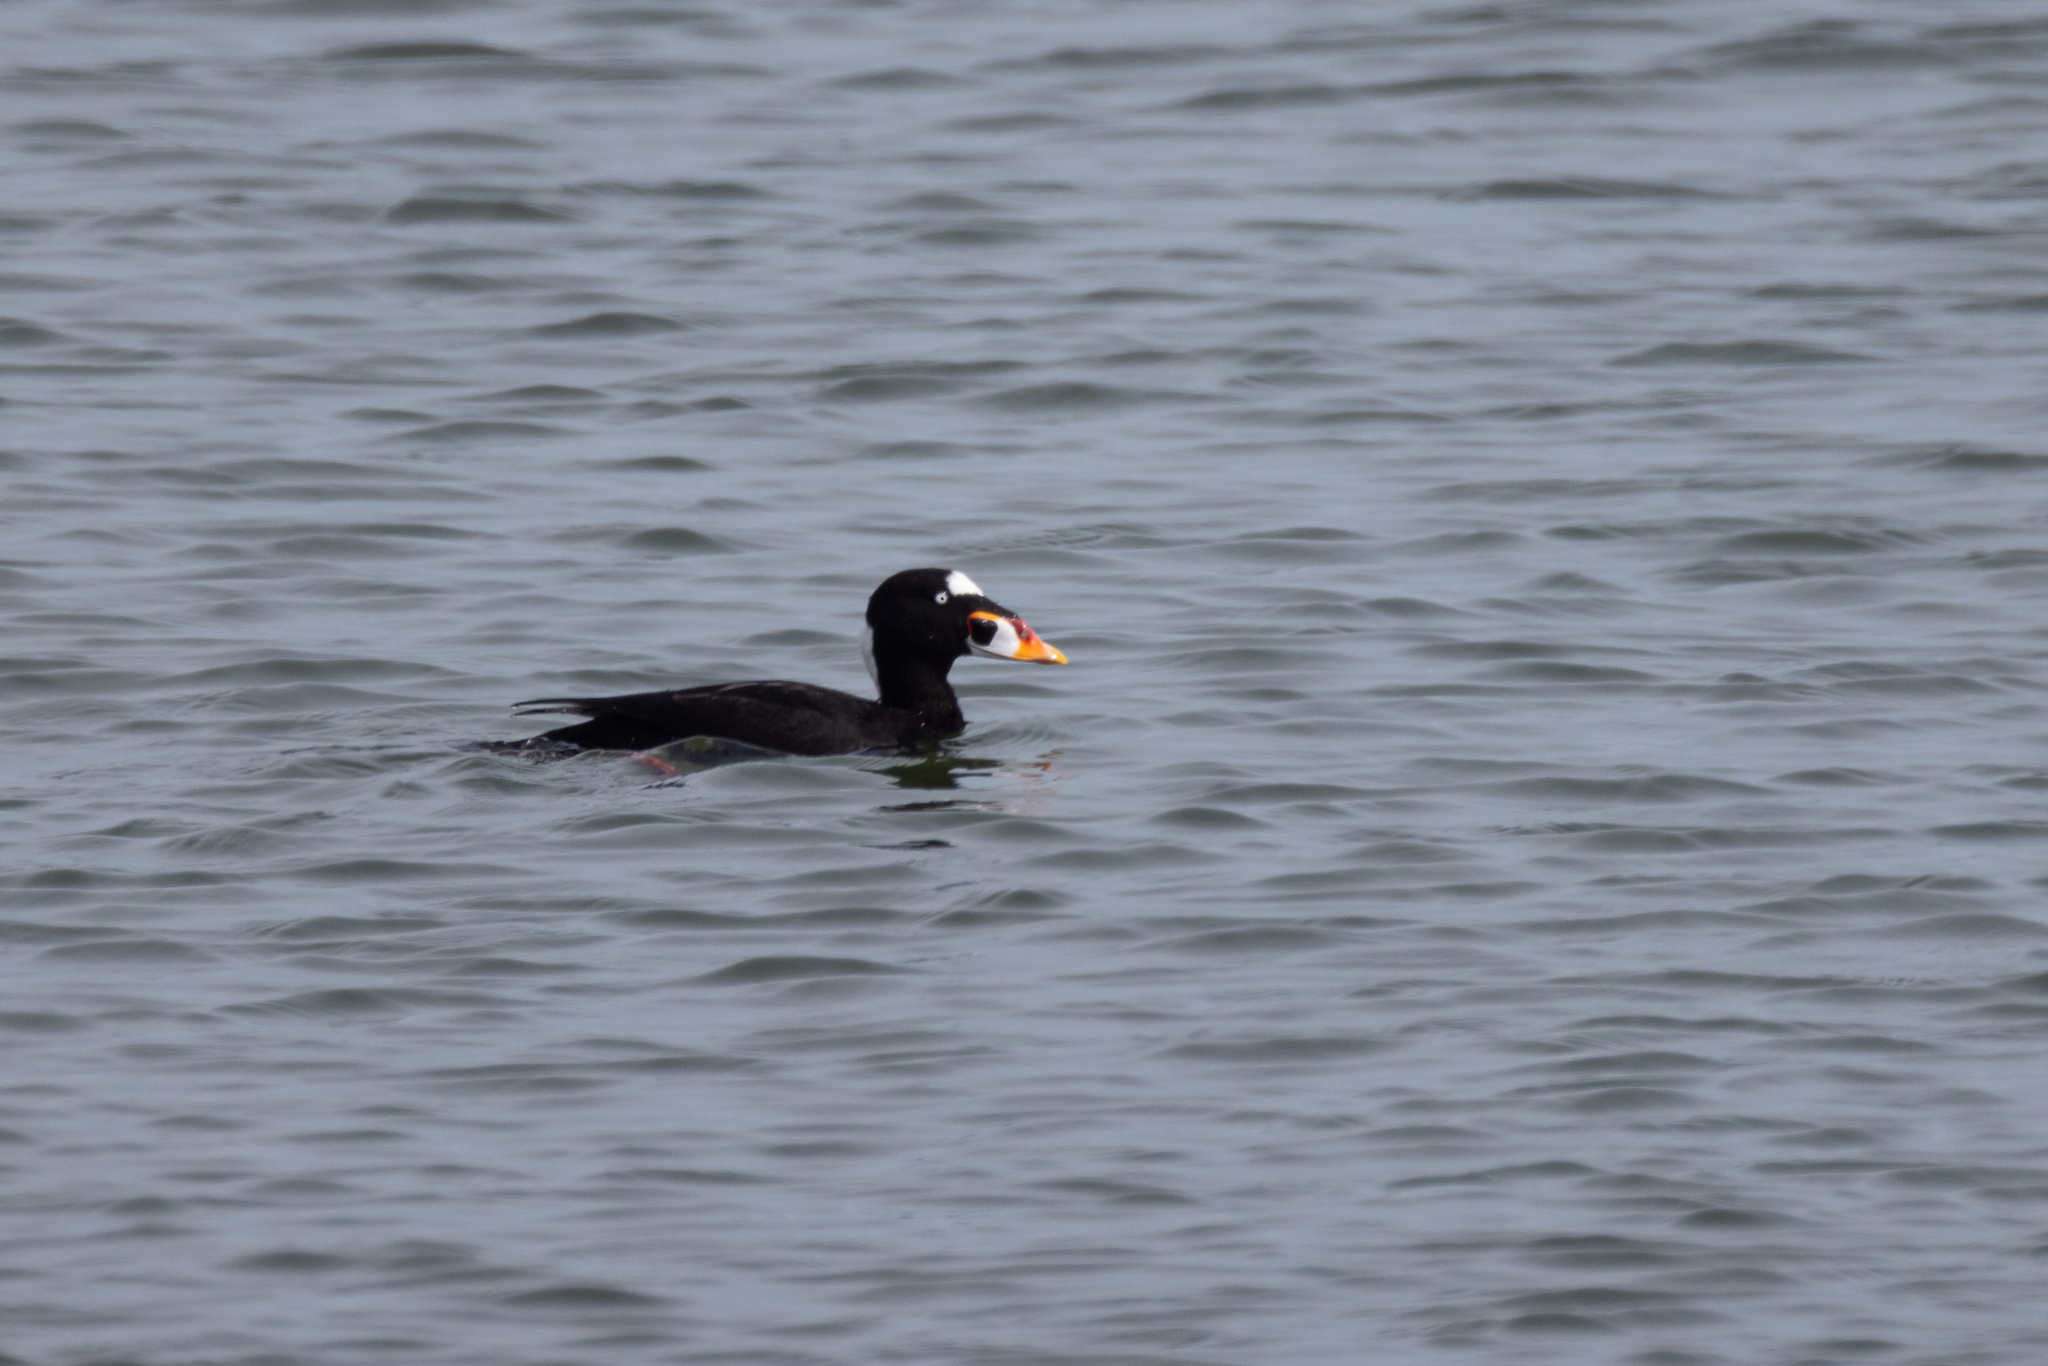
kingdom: Animalia
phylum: Chordata
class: Aves
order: Anseriformes
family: Anatidae
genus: Melanitta
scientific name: Melanitta perspicillata
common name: Surf scoter
